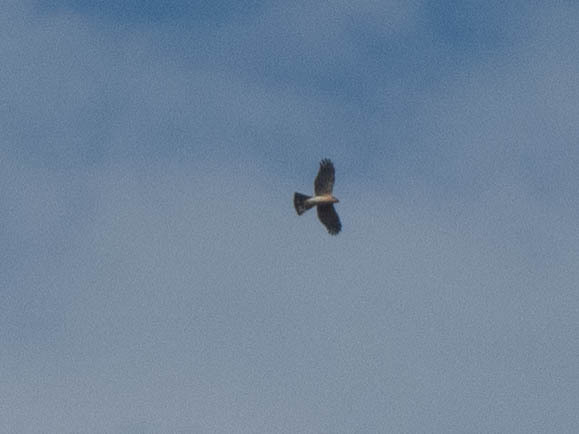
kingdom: Animalia
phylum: Chordata
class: Aves
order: Accipitriformes
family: Accipitridae
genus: Accipiter
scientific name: Accipiter nisus
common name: Eurasian sparrowhawk
